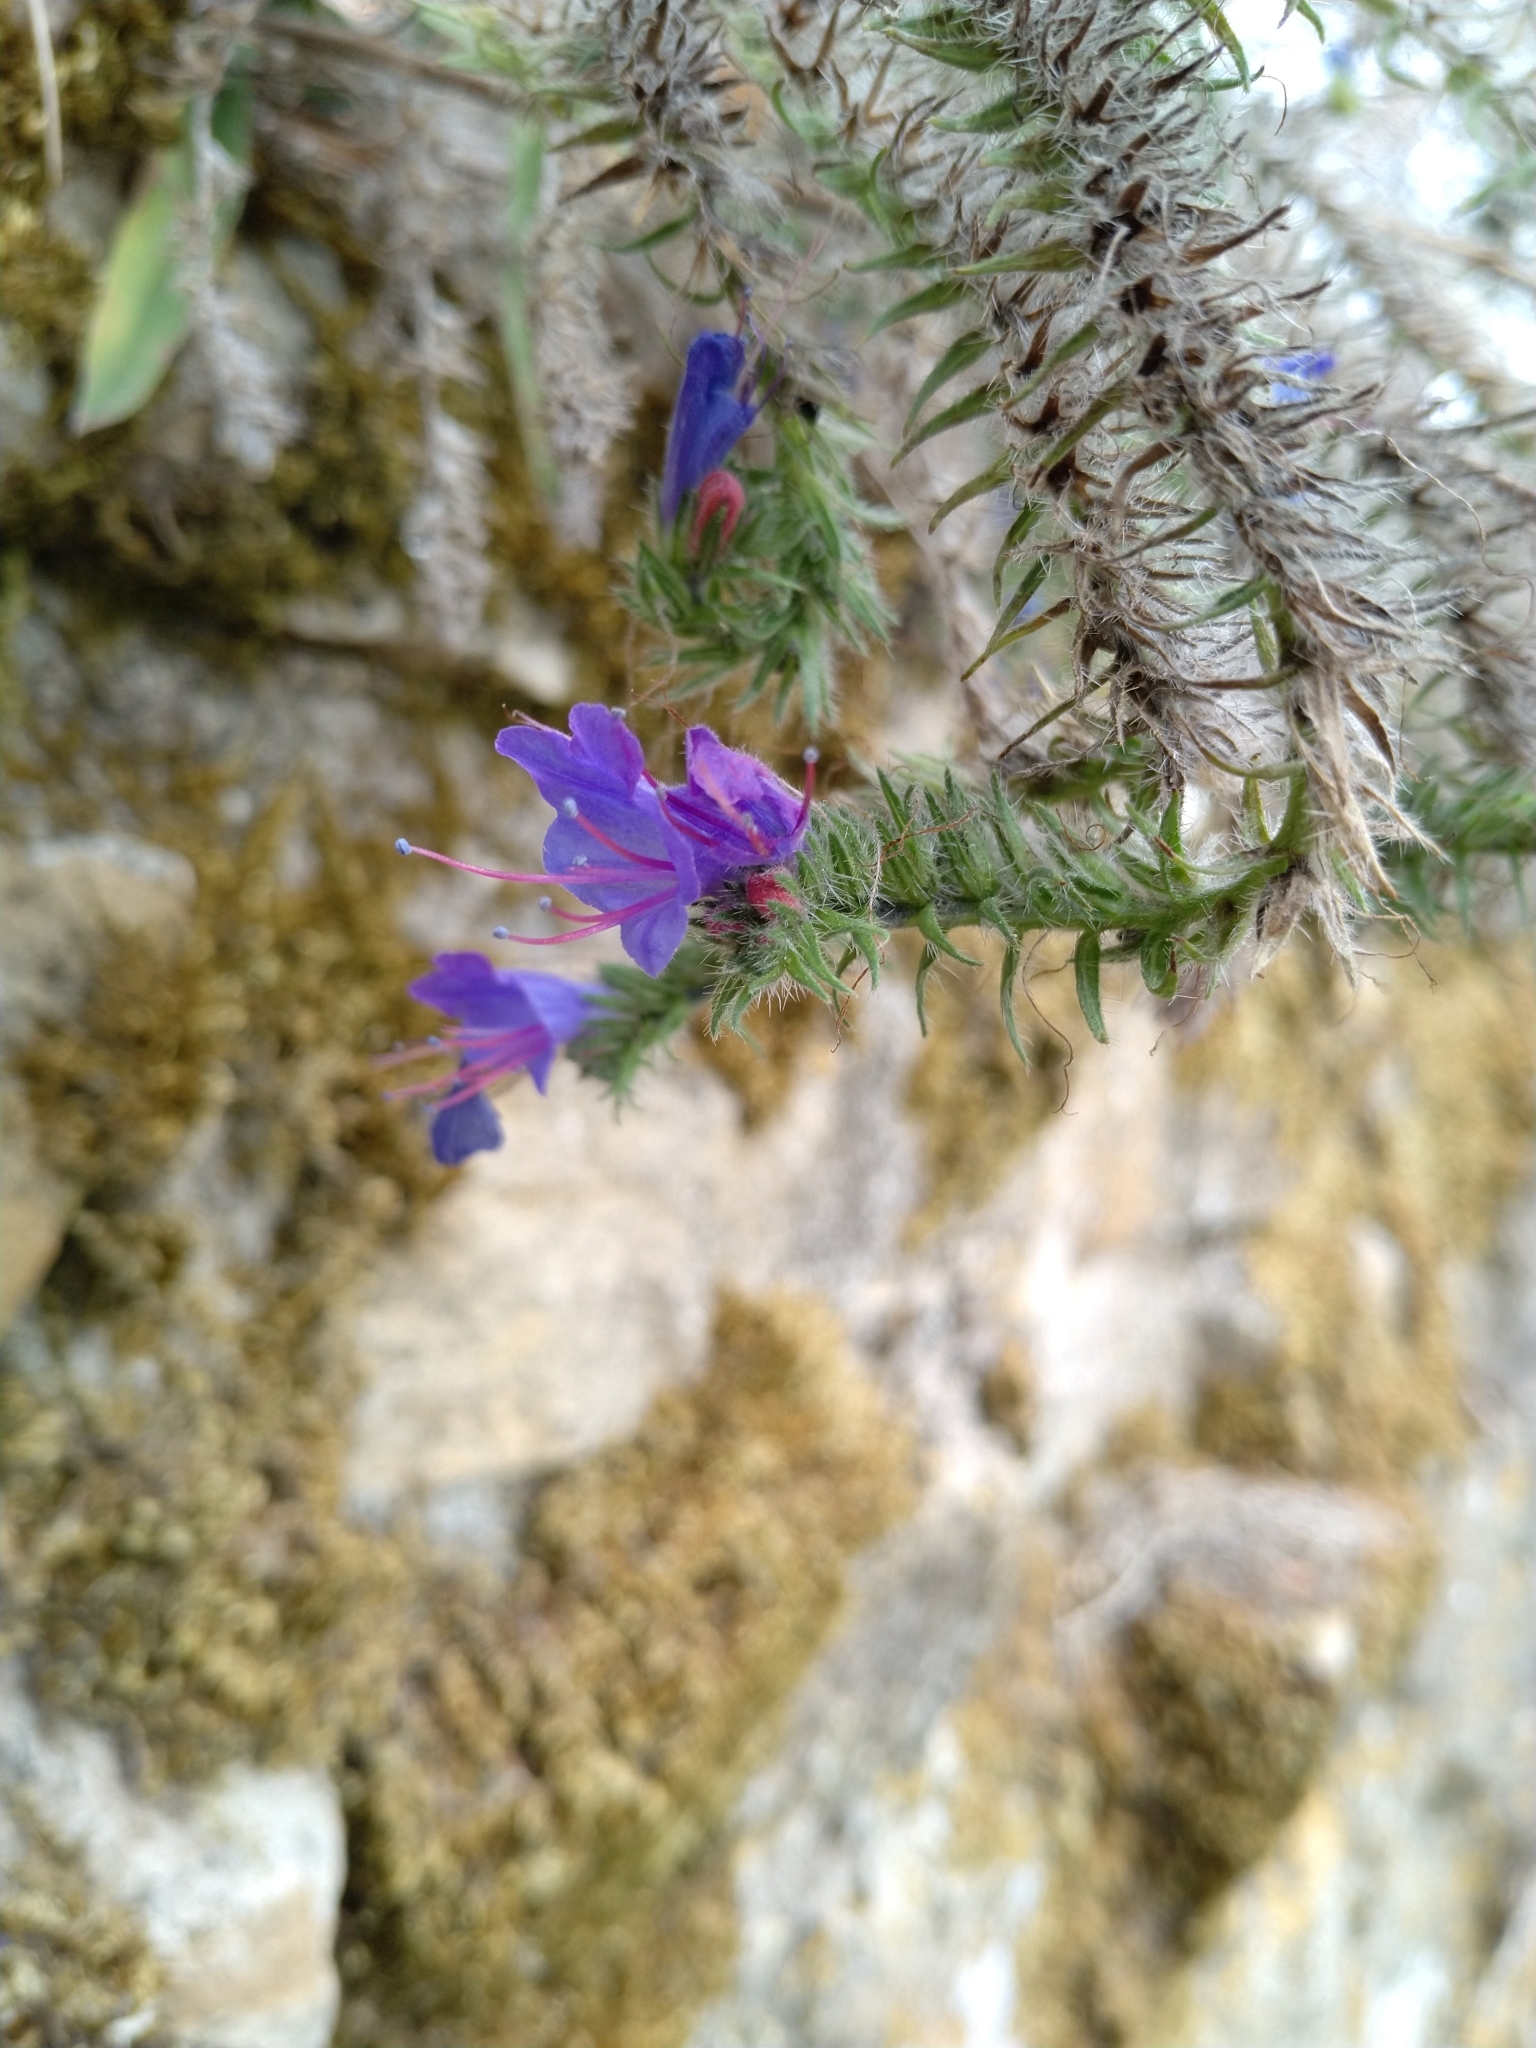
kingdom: Plantae
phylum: Tracheophyta
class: Magnoliopsida
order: Boraginales
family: Boraginaceae
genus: Echium
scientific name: Echium vulgare
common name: Common viper's bugloss
